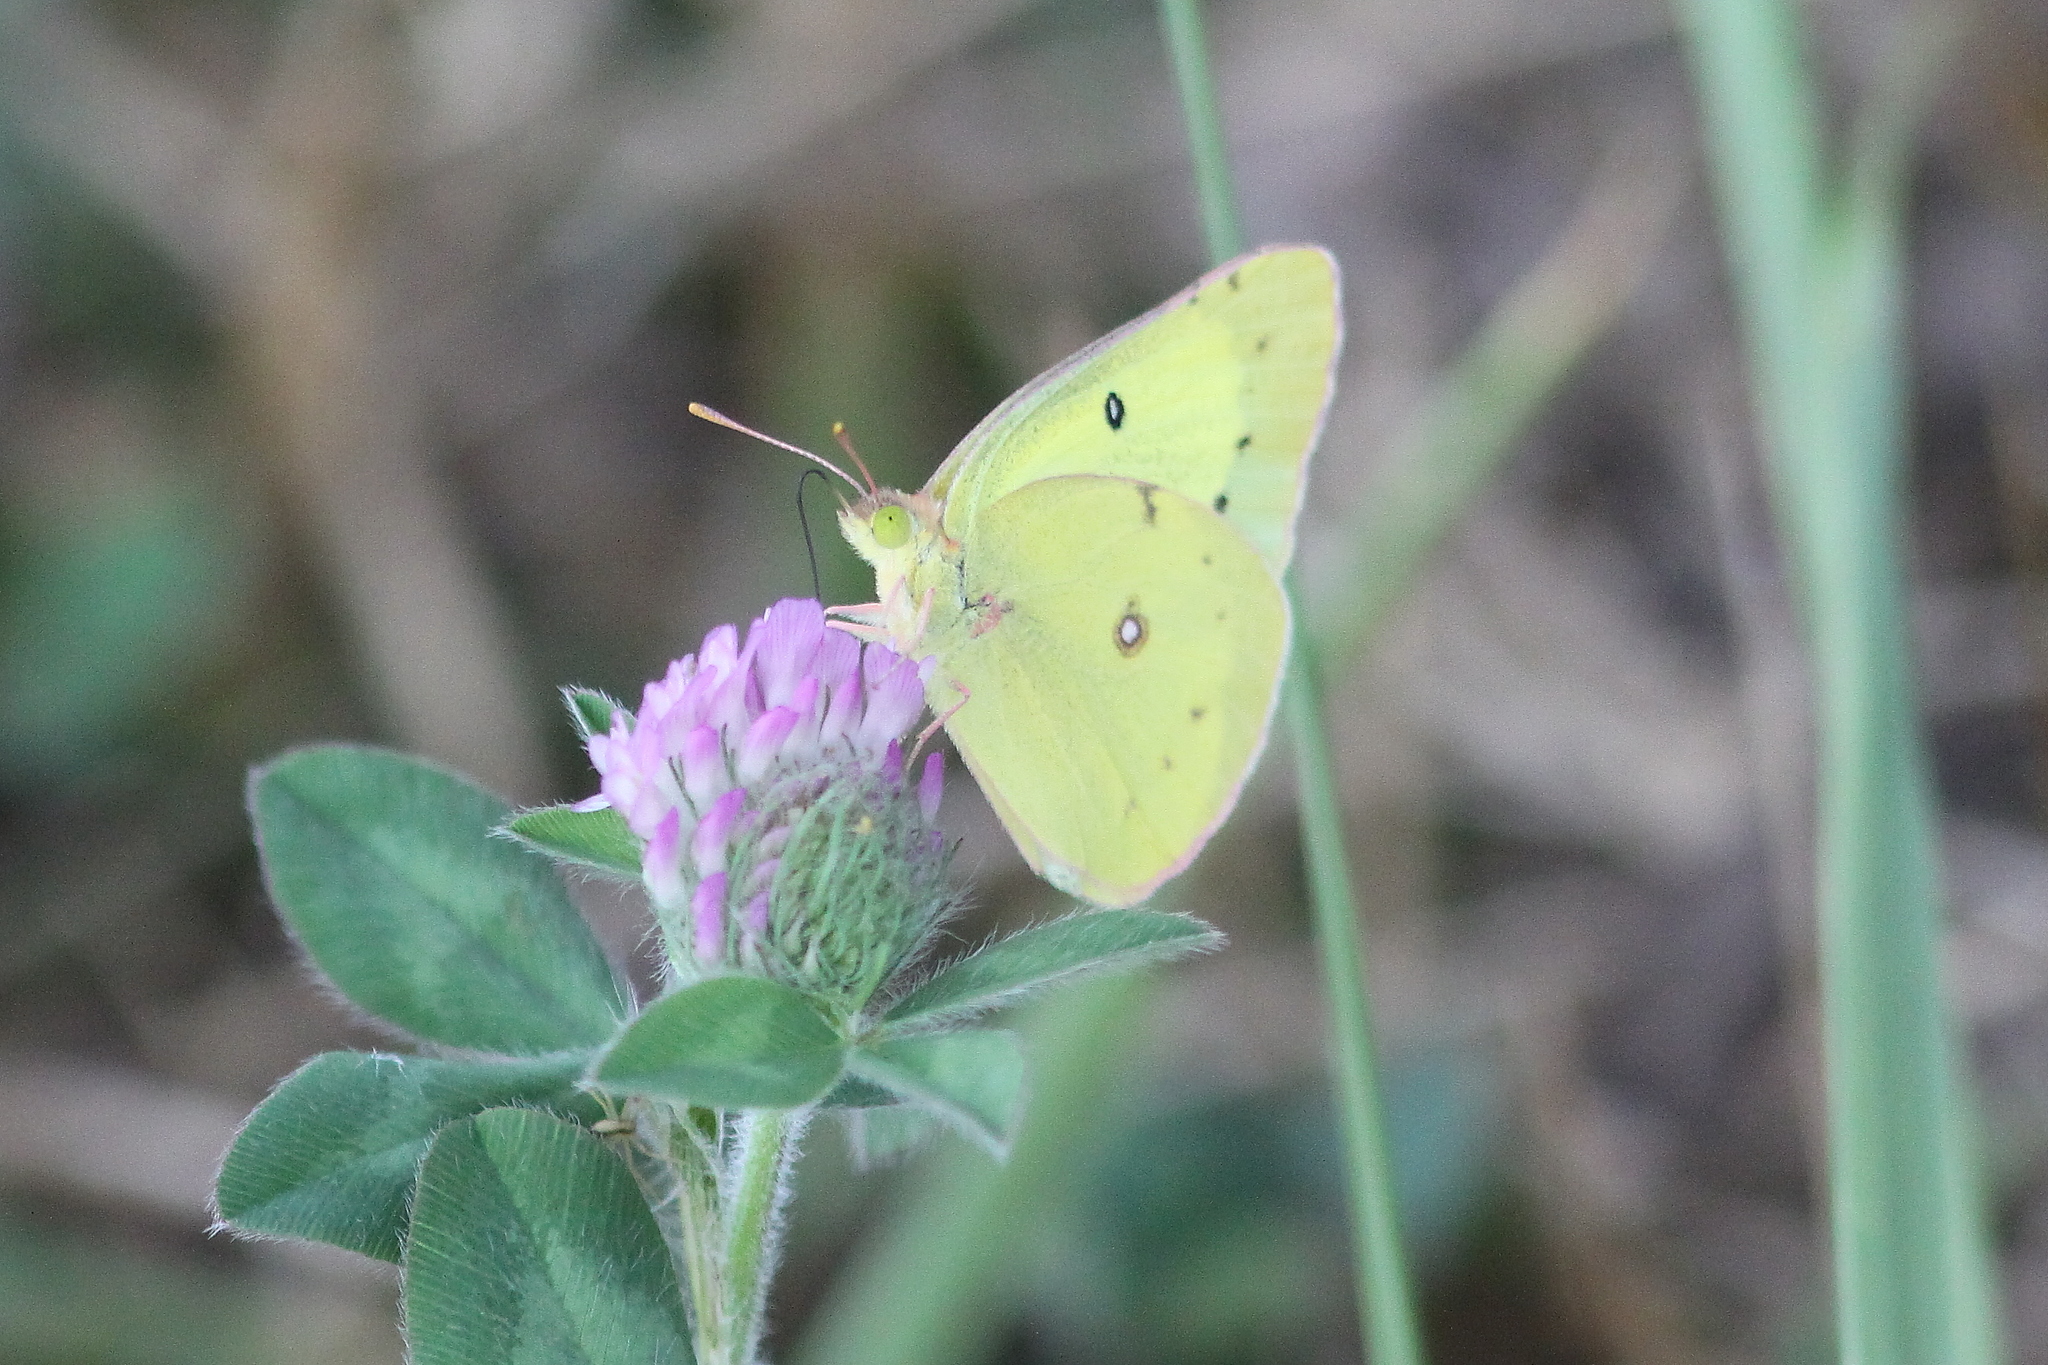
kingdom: Animalia
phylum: Arthropoda
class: Insecta
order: Lepidoptera
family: Pieridae
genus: Colias
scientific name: Colias philodice
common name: Clouded sulphur
